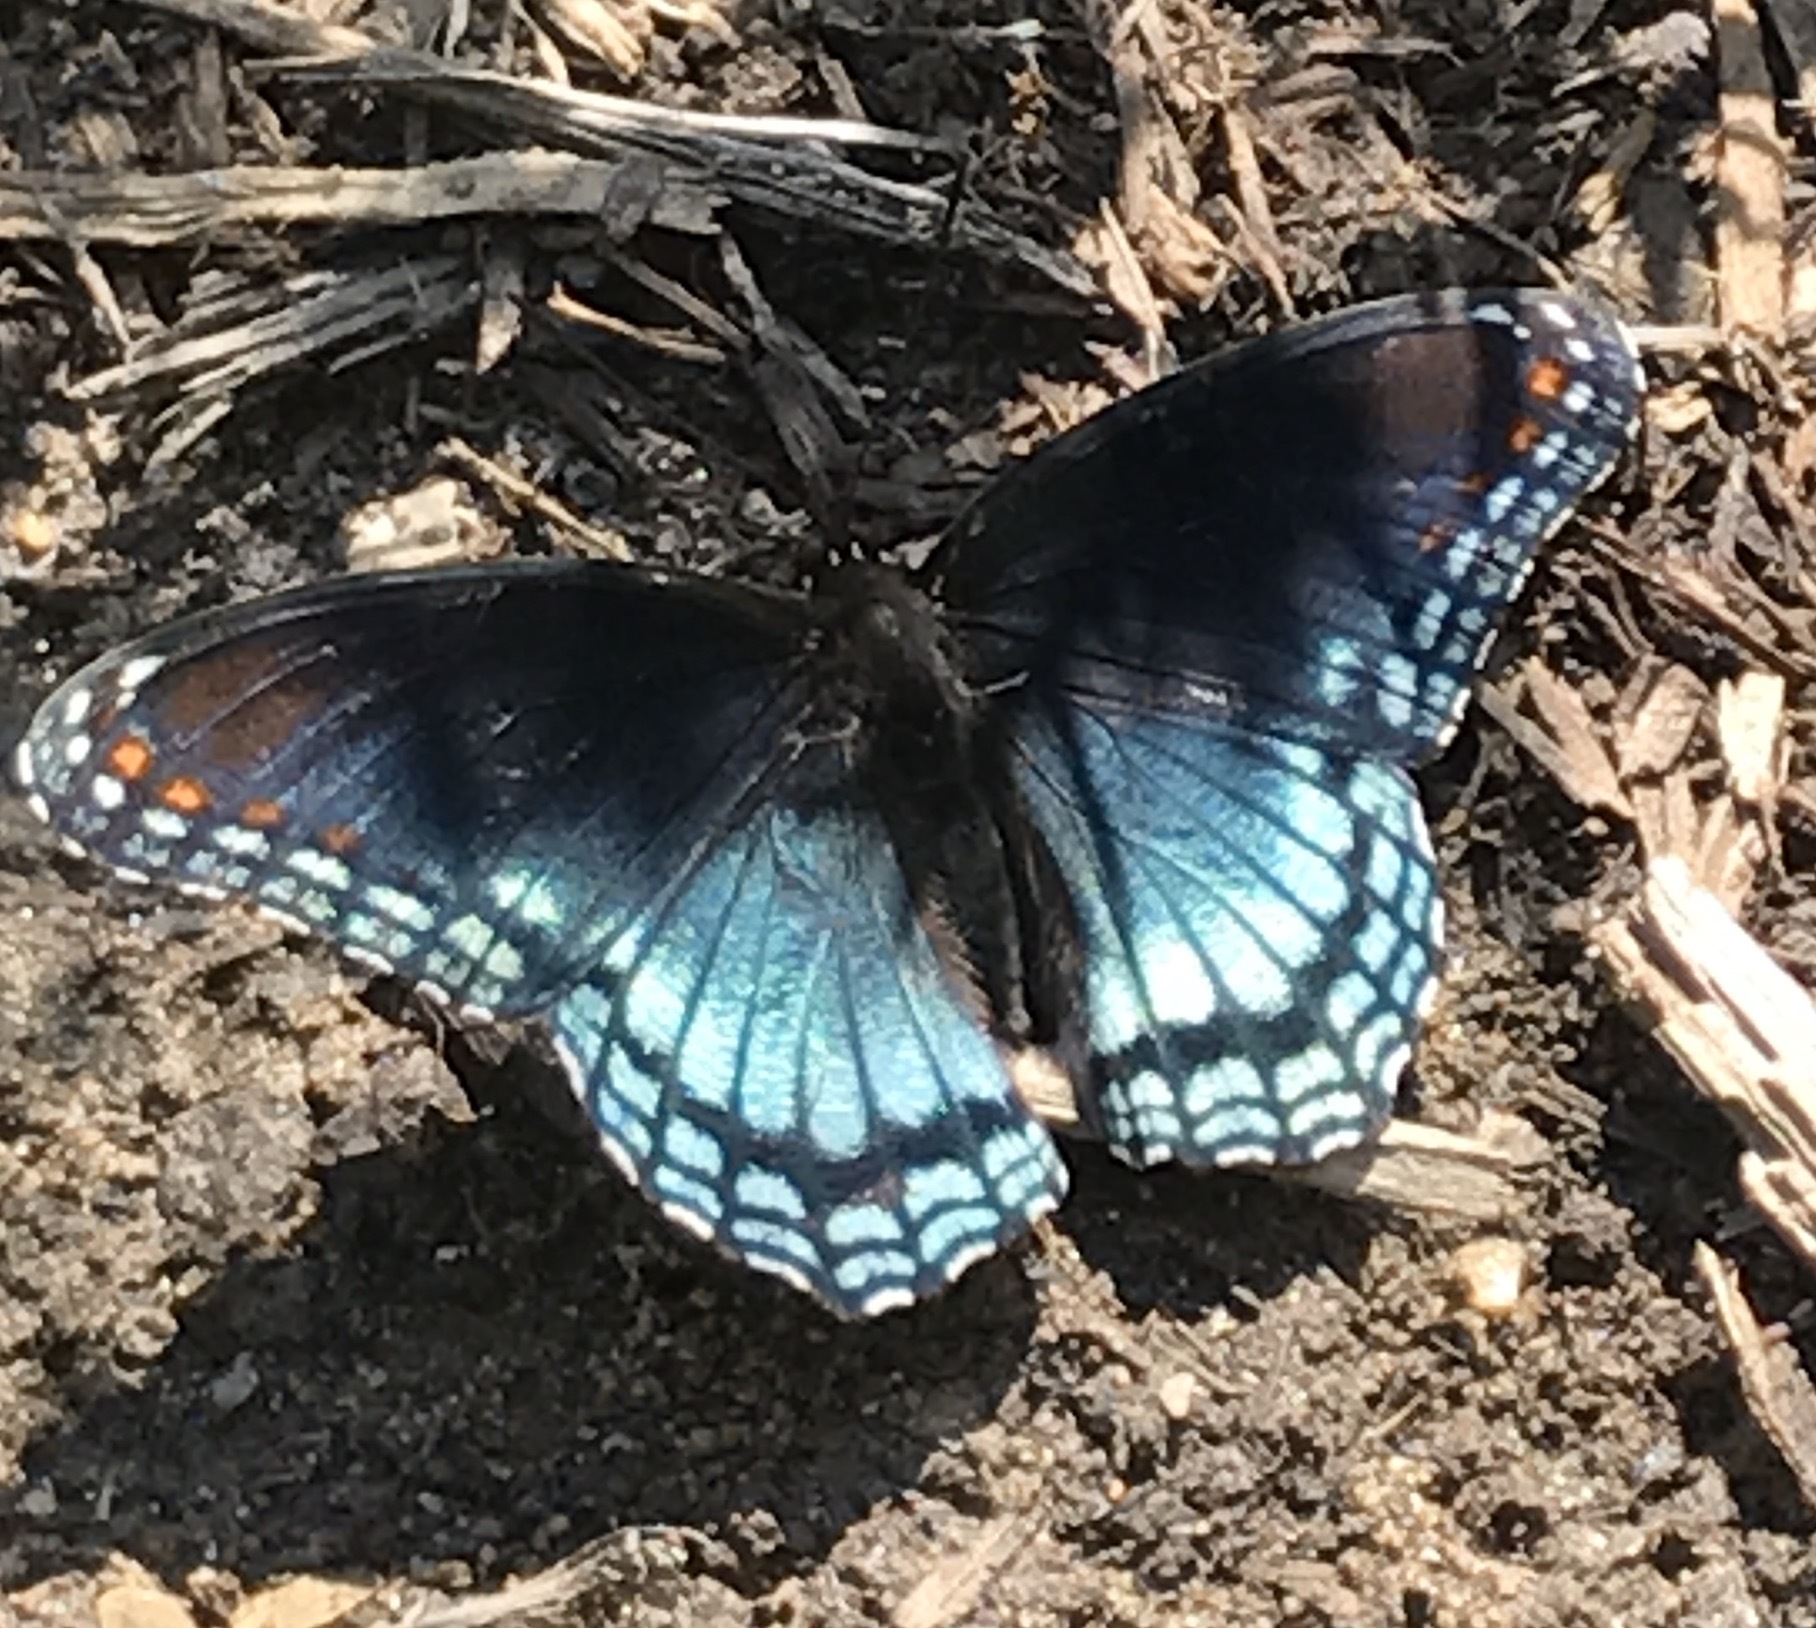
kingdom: Animalia
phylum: Arthropoda
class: Insecta
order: Lepidoptera
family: Nymphalidae
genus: Limenitis
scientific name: Limenitis arthemis
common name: Red-spotted admiral
